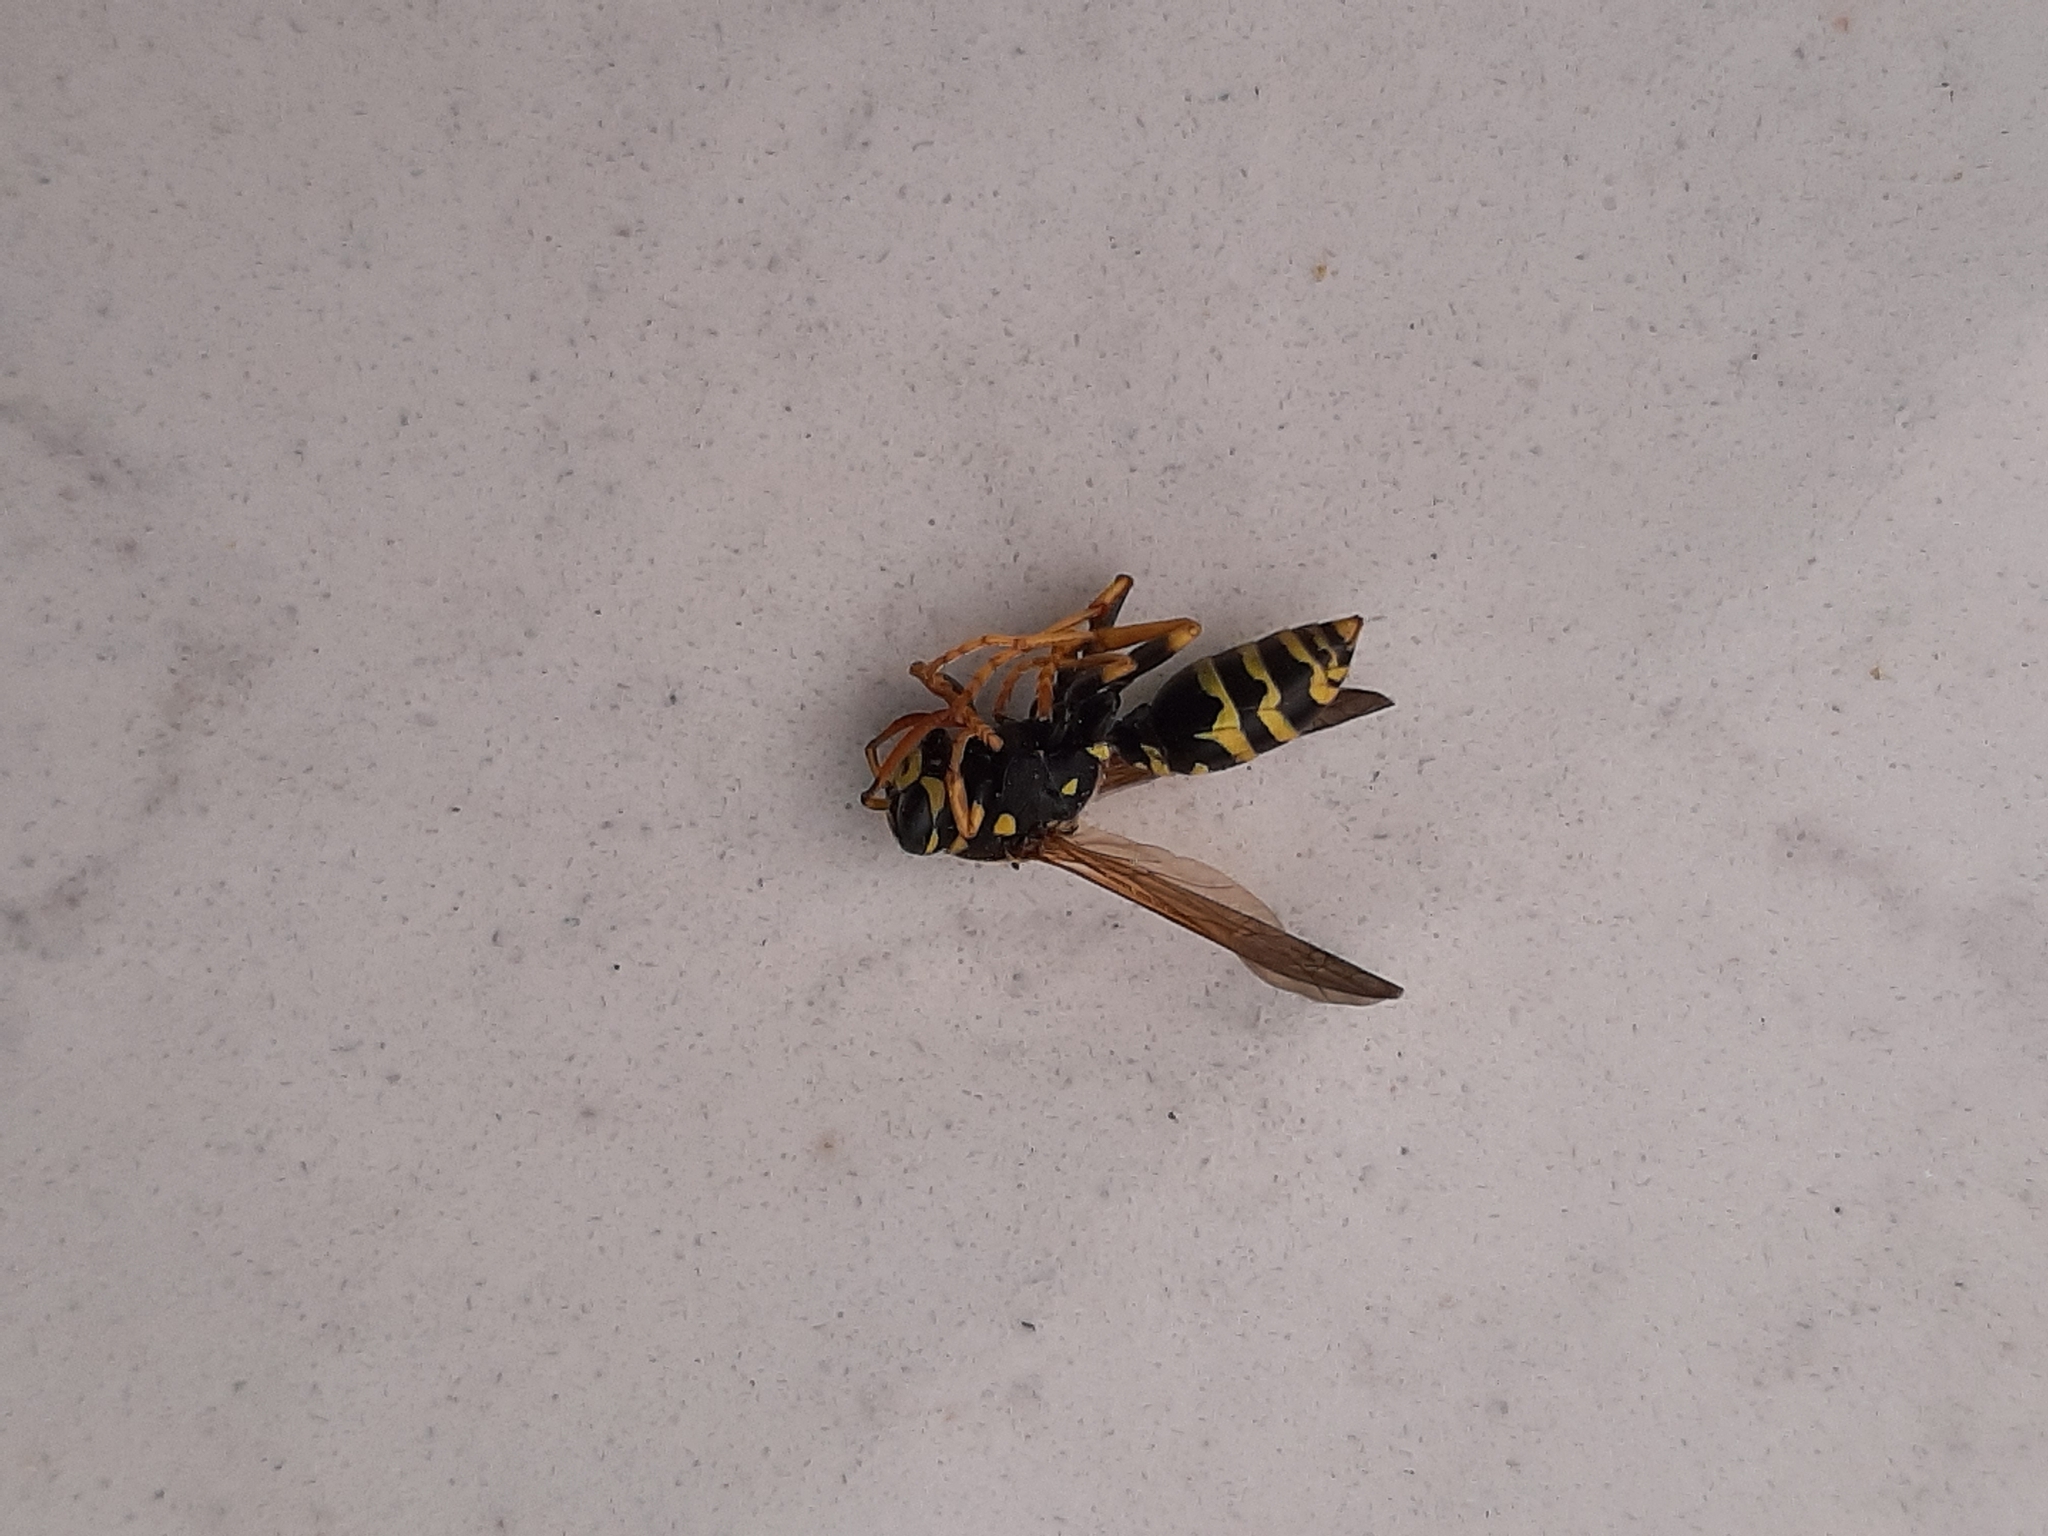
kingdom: Animalia
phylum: Arthropoda
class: Insecta
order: Hymenoptera
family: Eumenidae
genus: Polistes
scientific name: Polistes dominula
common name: Paper wasp
